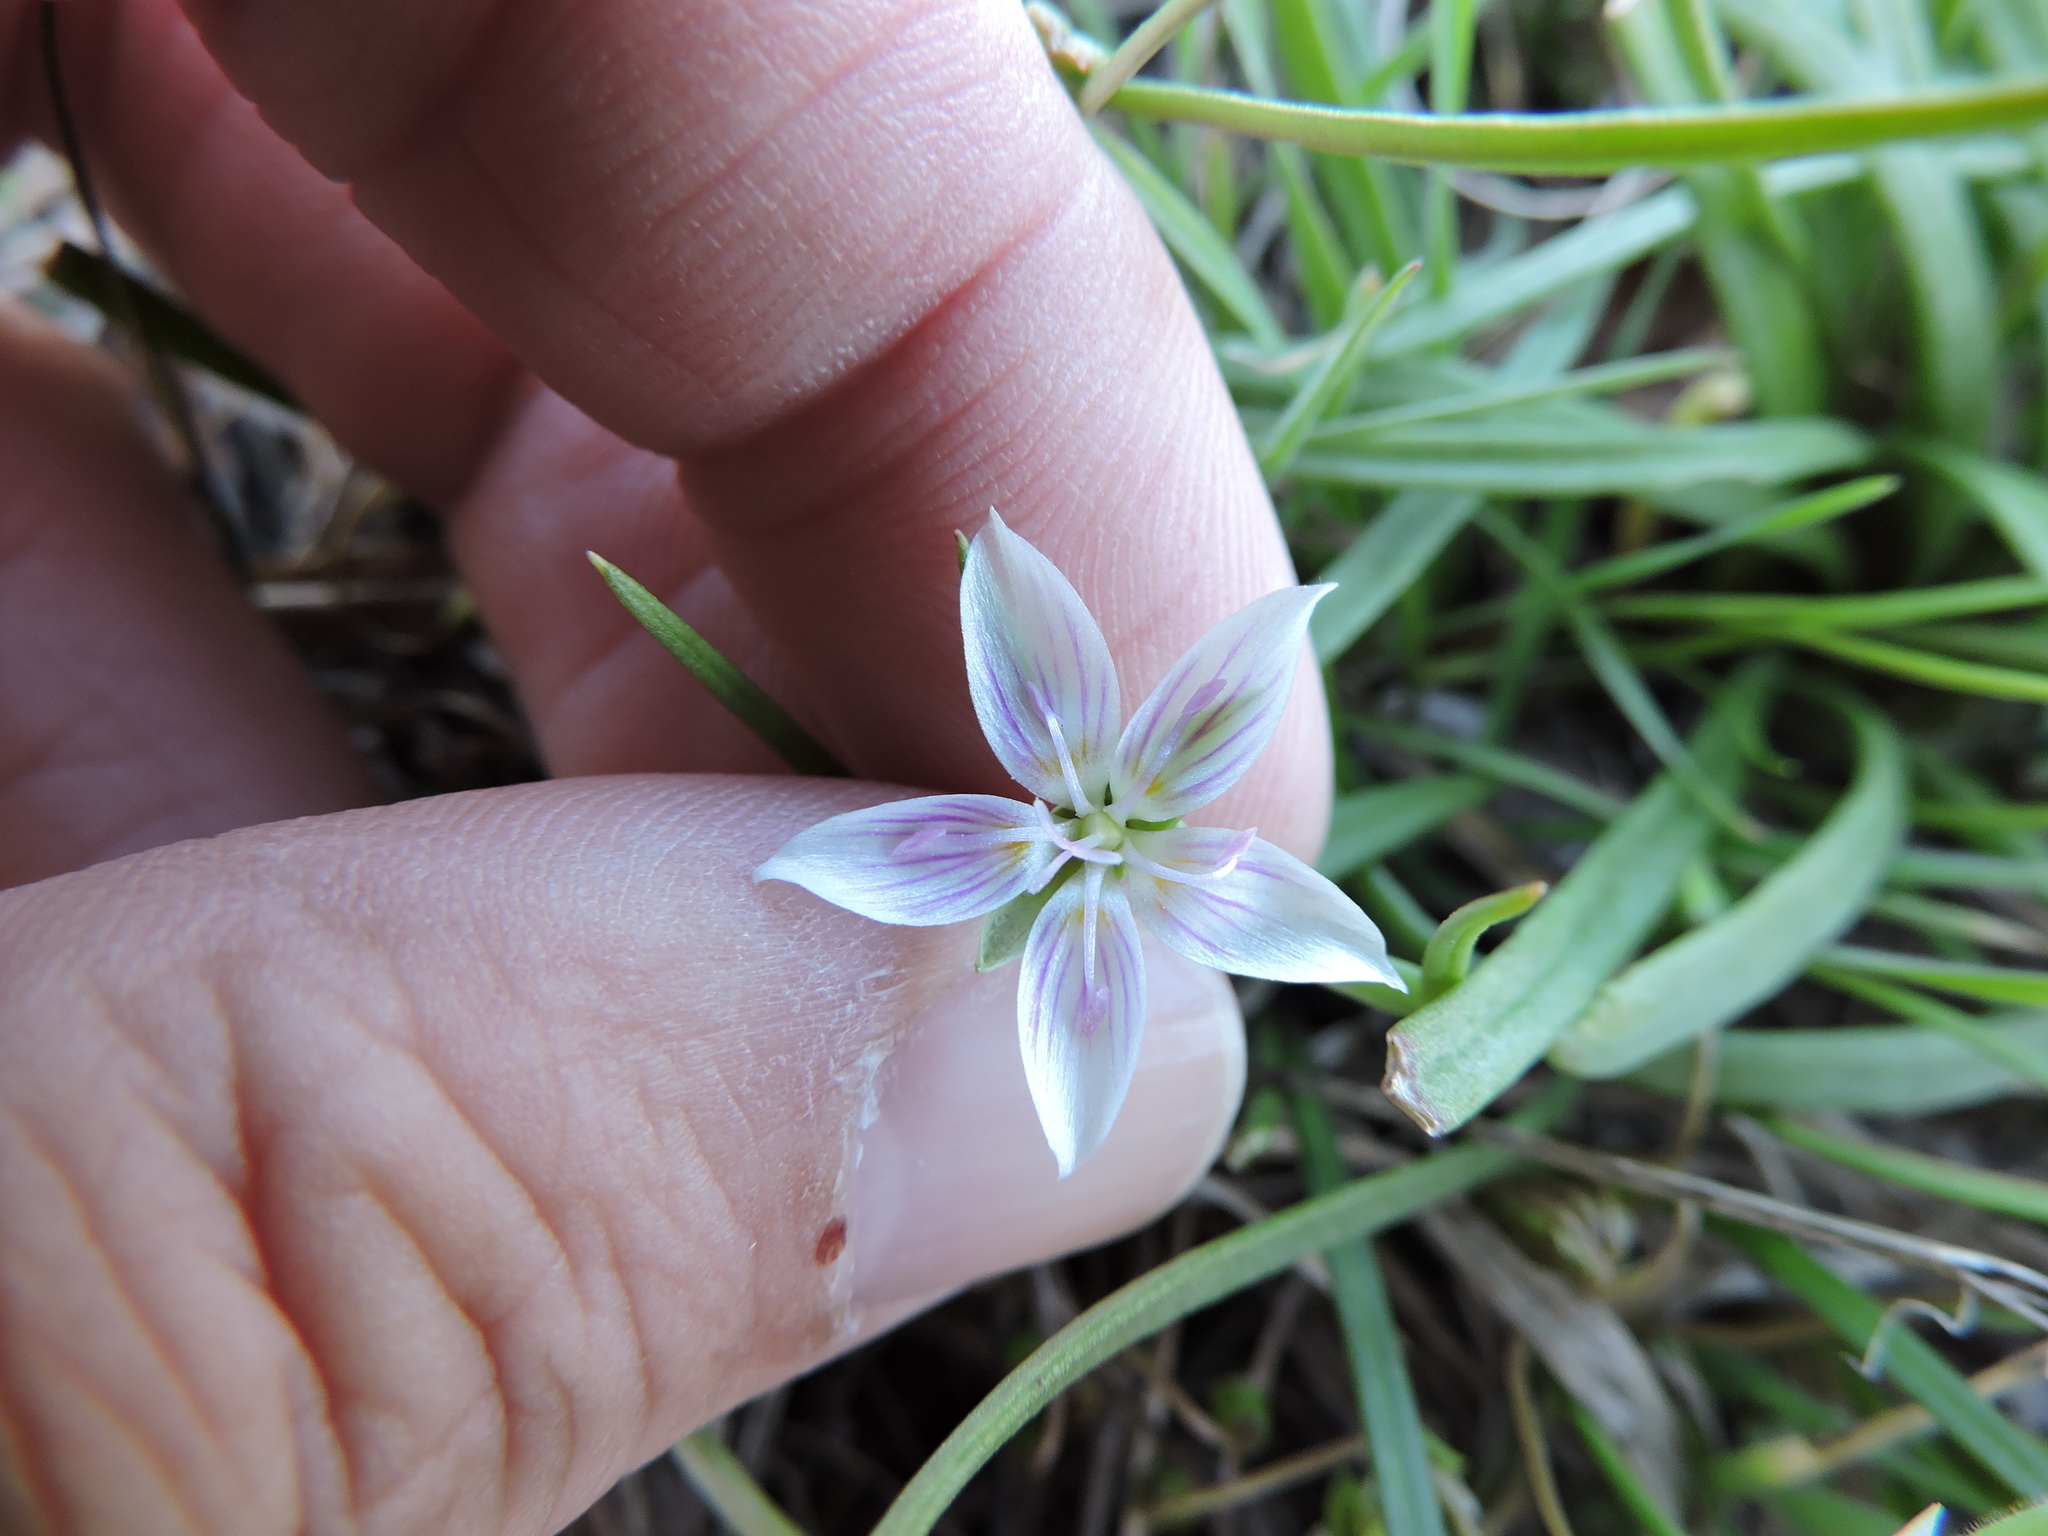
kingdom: Plantae
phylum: Tracheophyta
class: Magnoliopsida
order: Caryophyllales
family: Montiaceae
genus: Claytonia
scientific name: Claytonia virginica
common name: Virginia springbeauty
